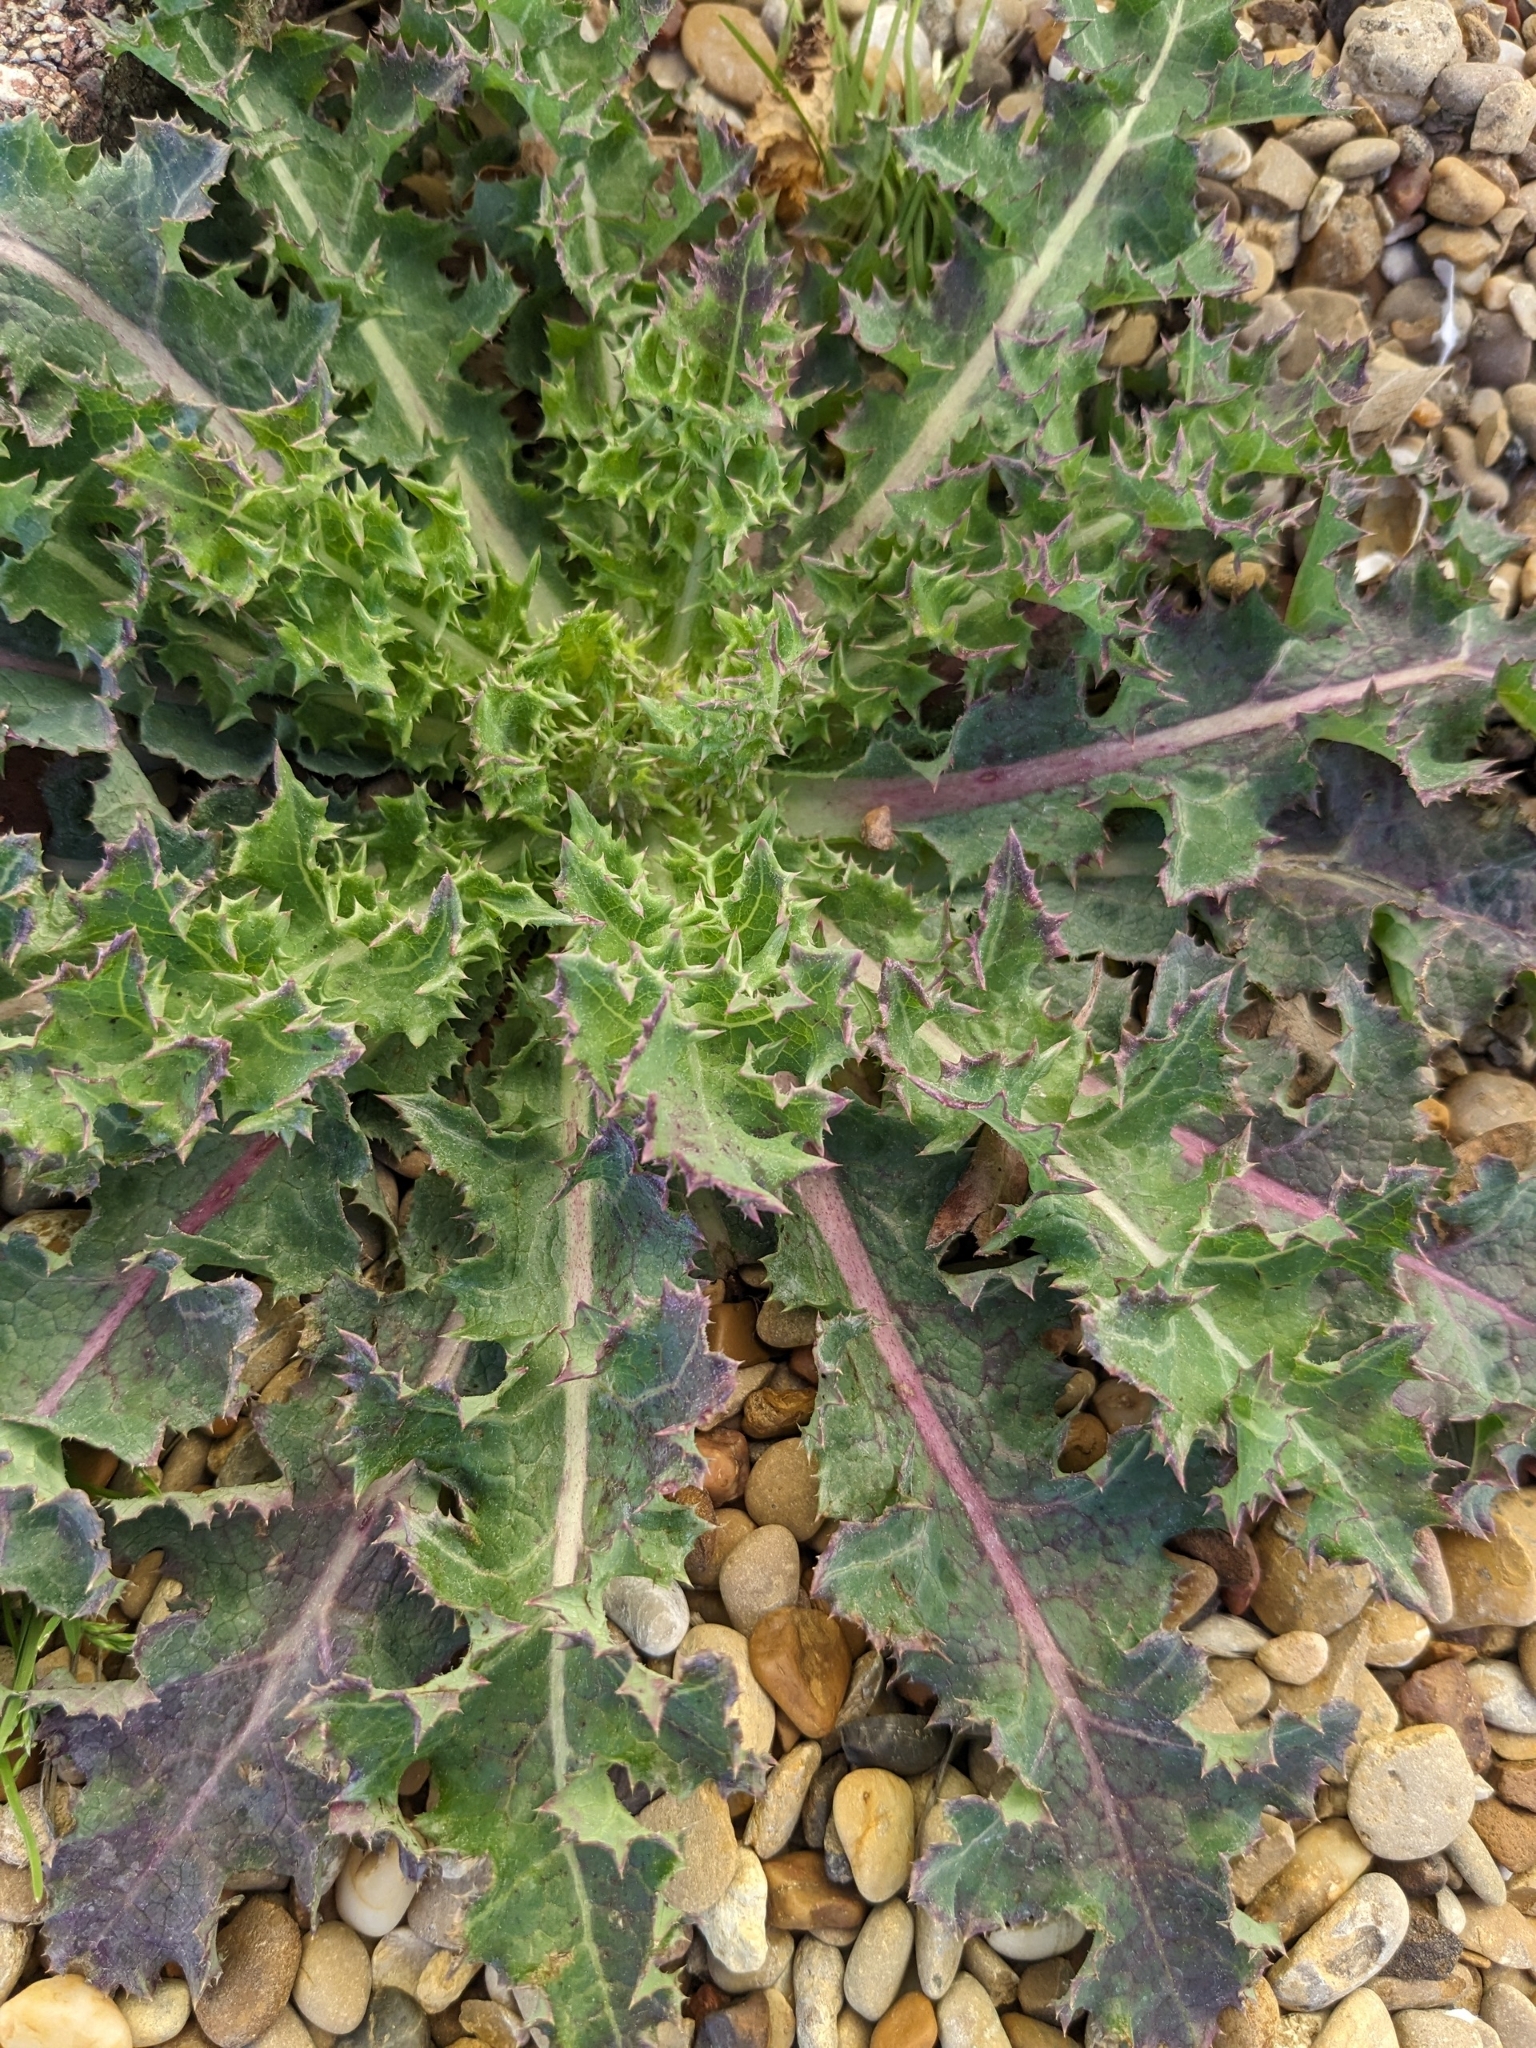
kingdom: Plantae
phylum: Tracheophyta
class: Magnoliopsida
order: Asterales
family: Asteraceae
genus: Sonchus
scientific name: Sonchus asper
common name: Prickly sow-thistle
